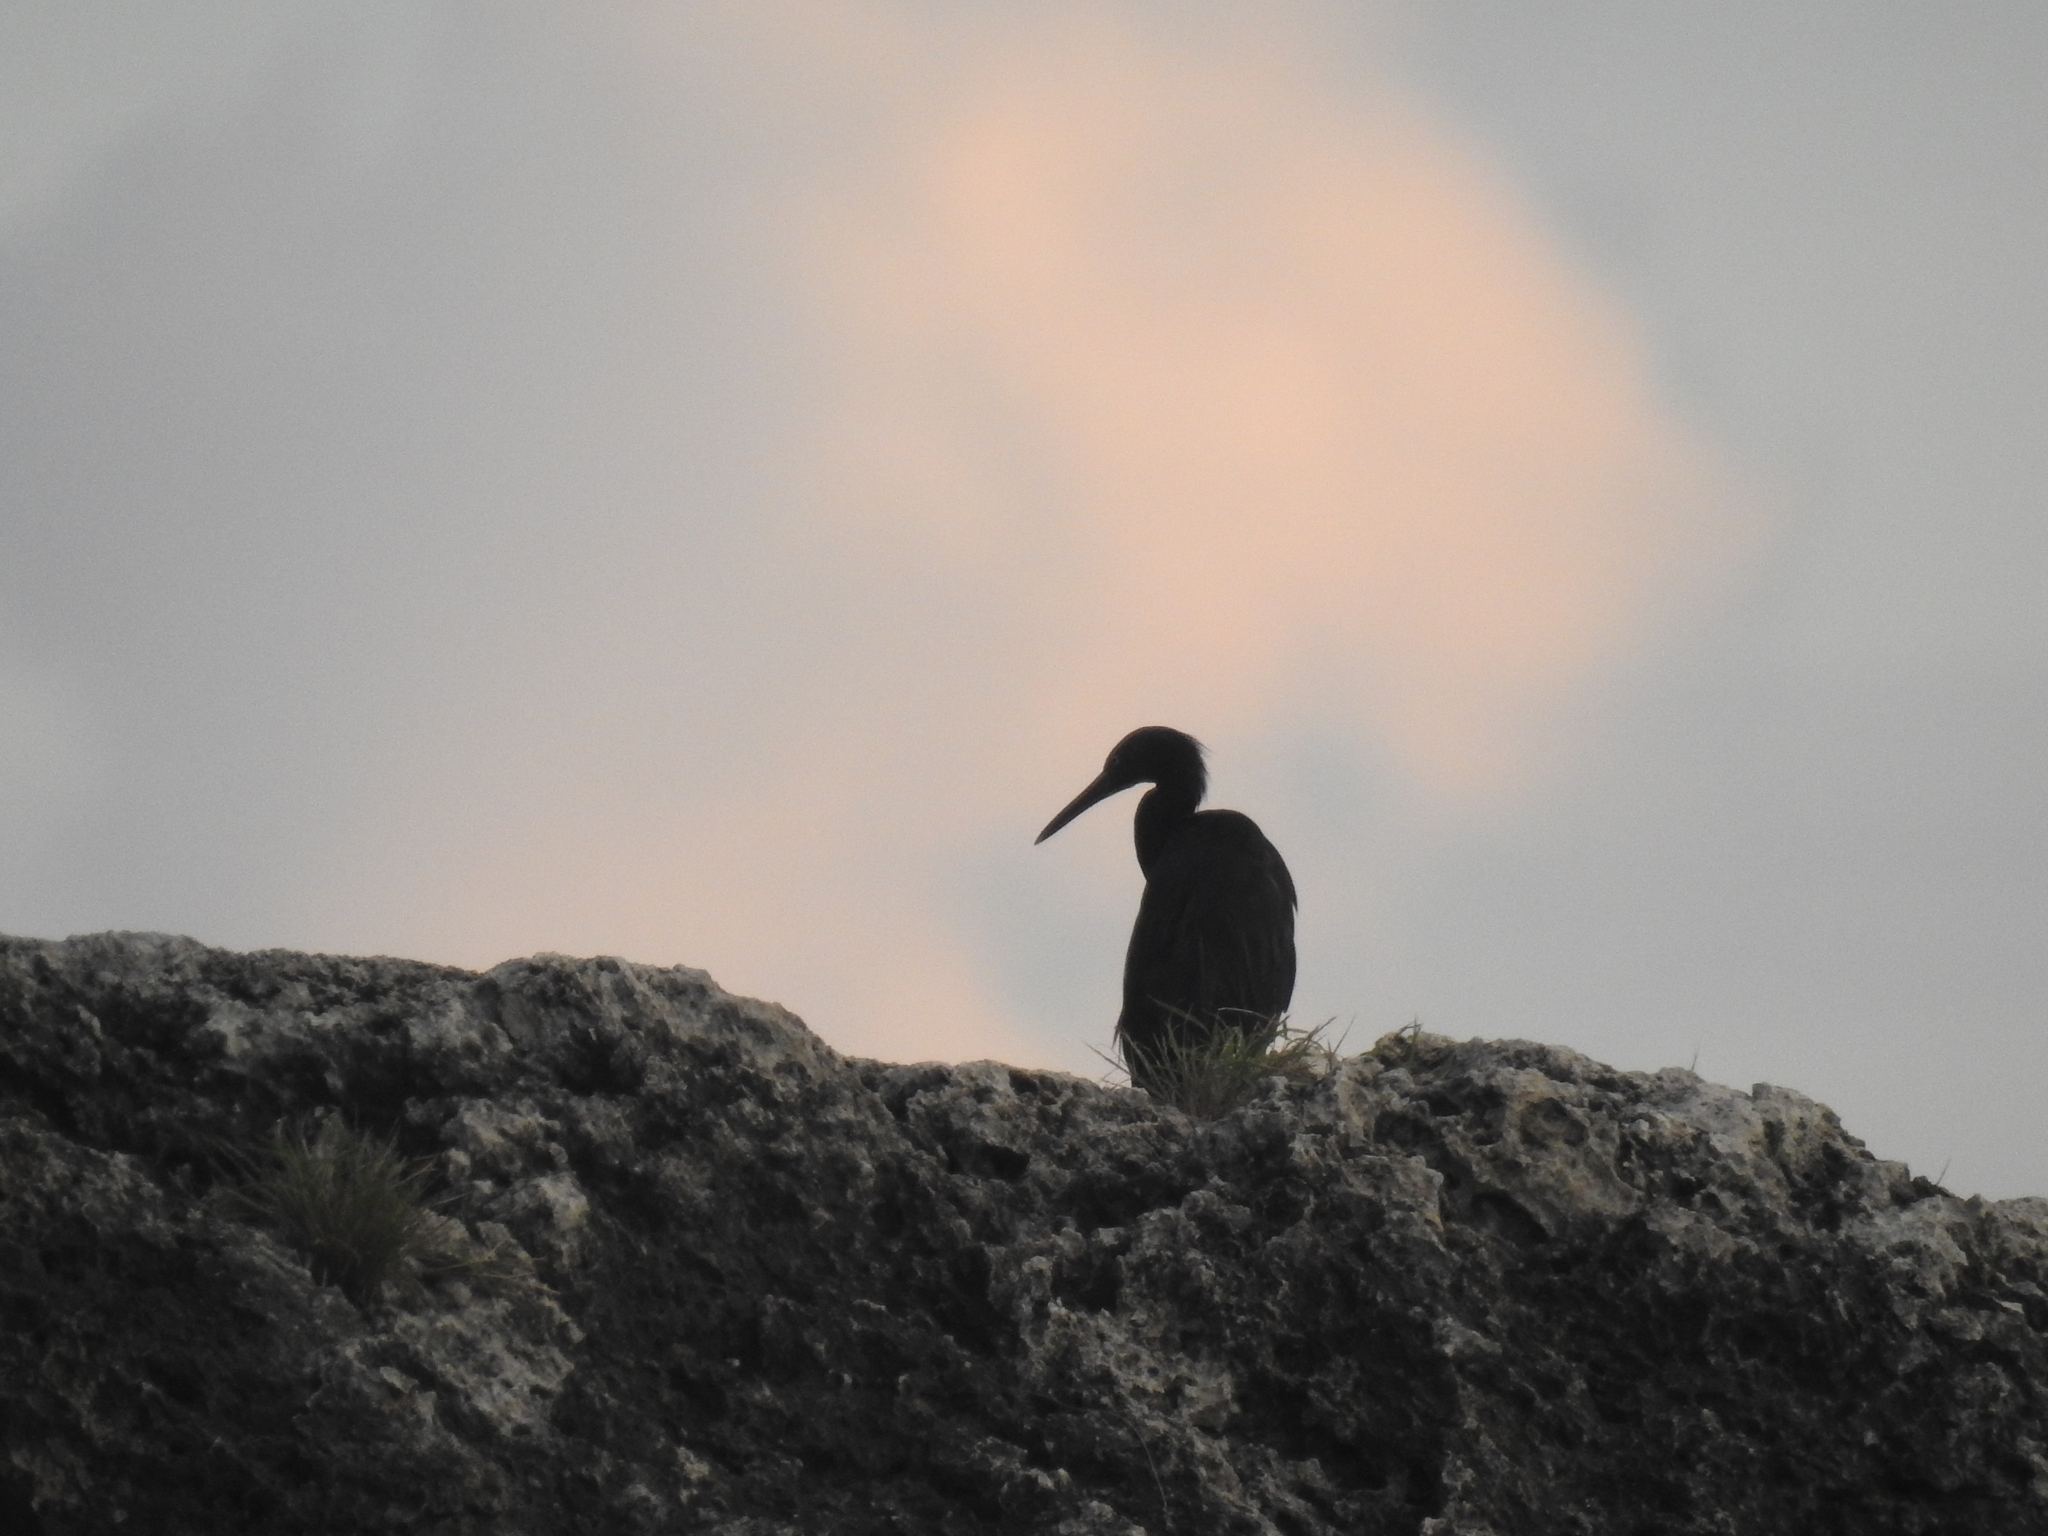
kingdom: Animalia
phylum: Chordata
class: Aves
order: Pelecaniformes
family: Ardeidae
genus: Egretta
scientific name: Egretta sacra
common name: Pacific reef heron
